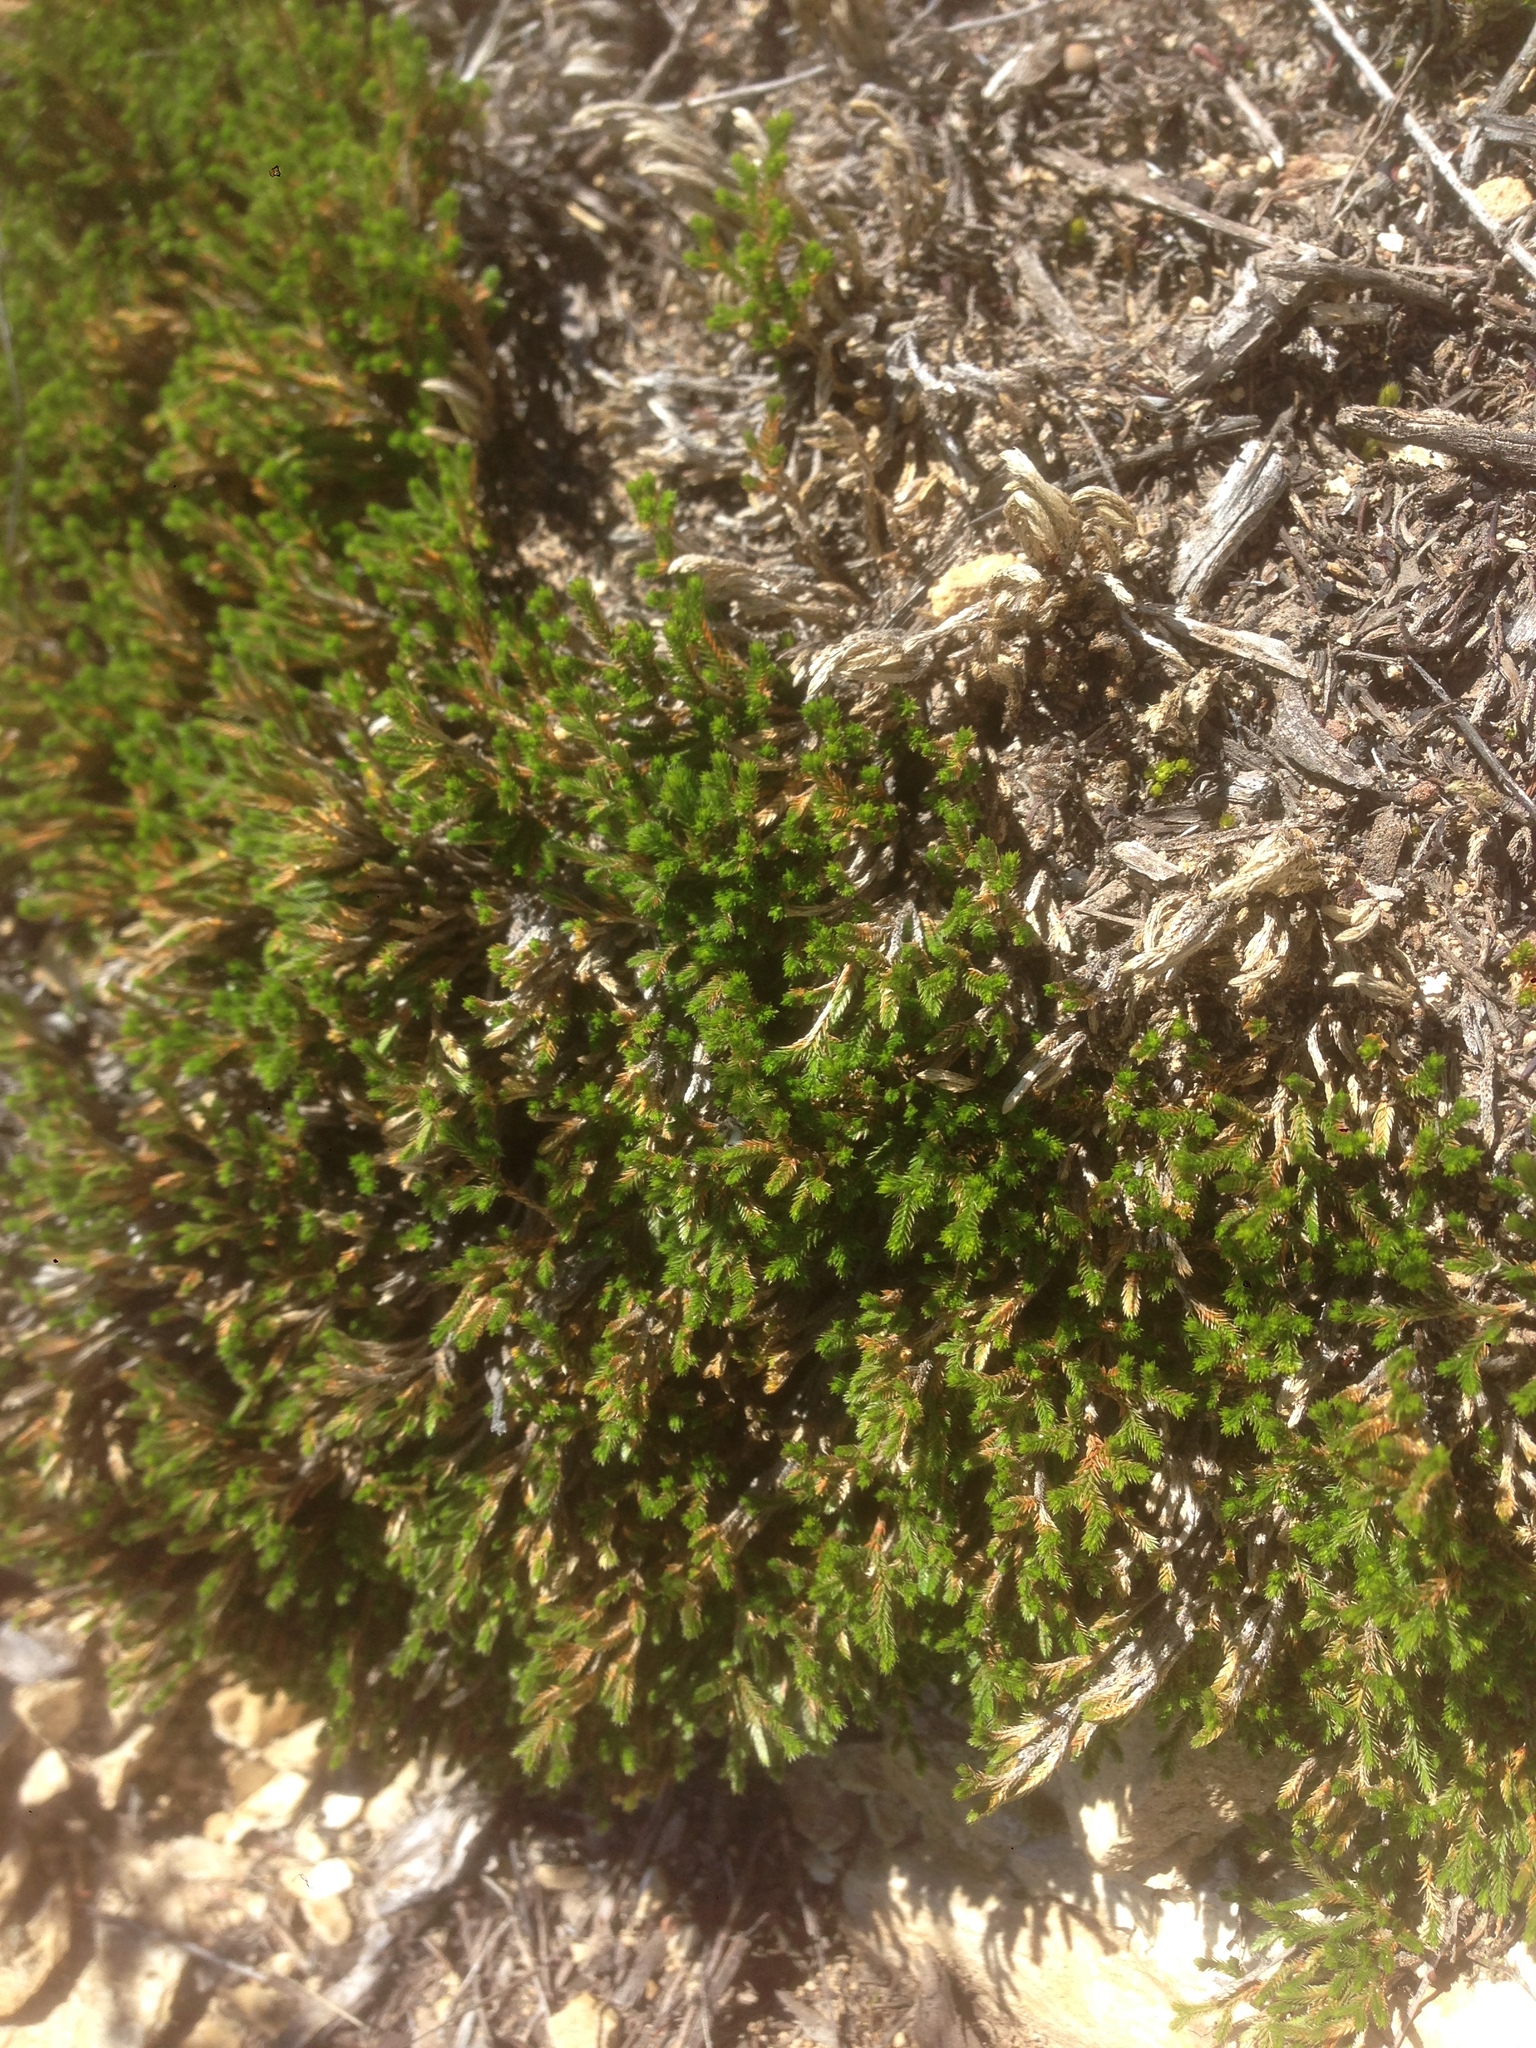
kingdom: Plantae
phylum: Tracheophyta
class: Lycopodiopsida
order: Selaginellales
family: Selaginellaceae
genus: Selaginella
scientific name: Selaginella bigelovii
